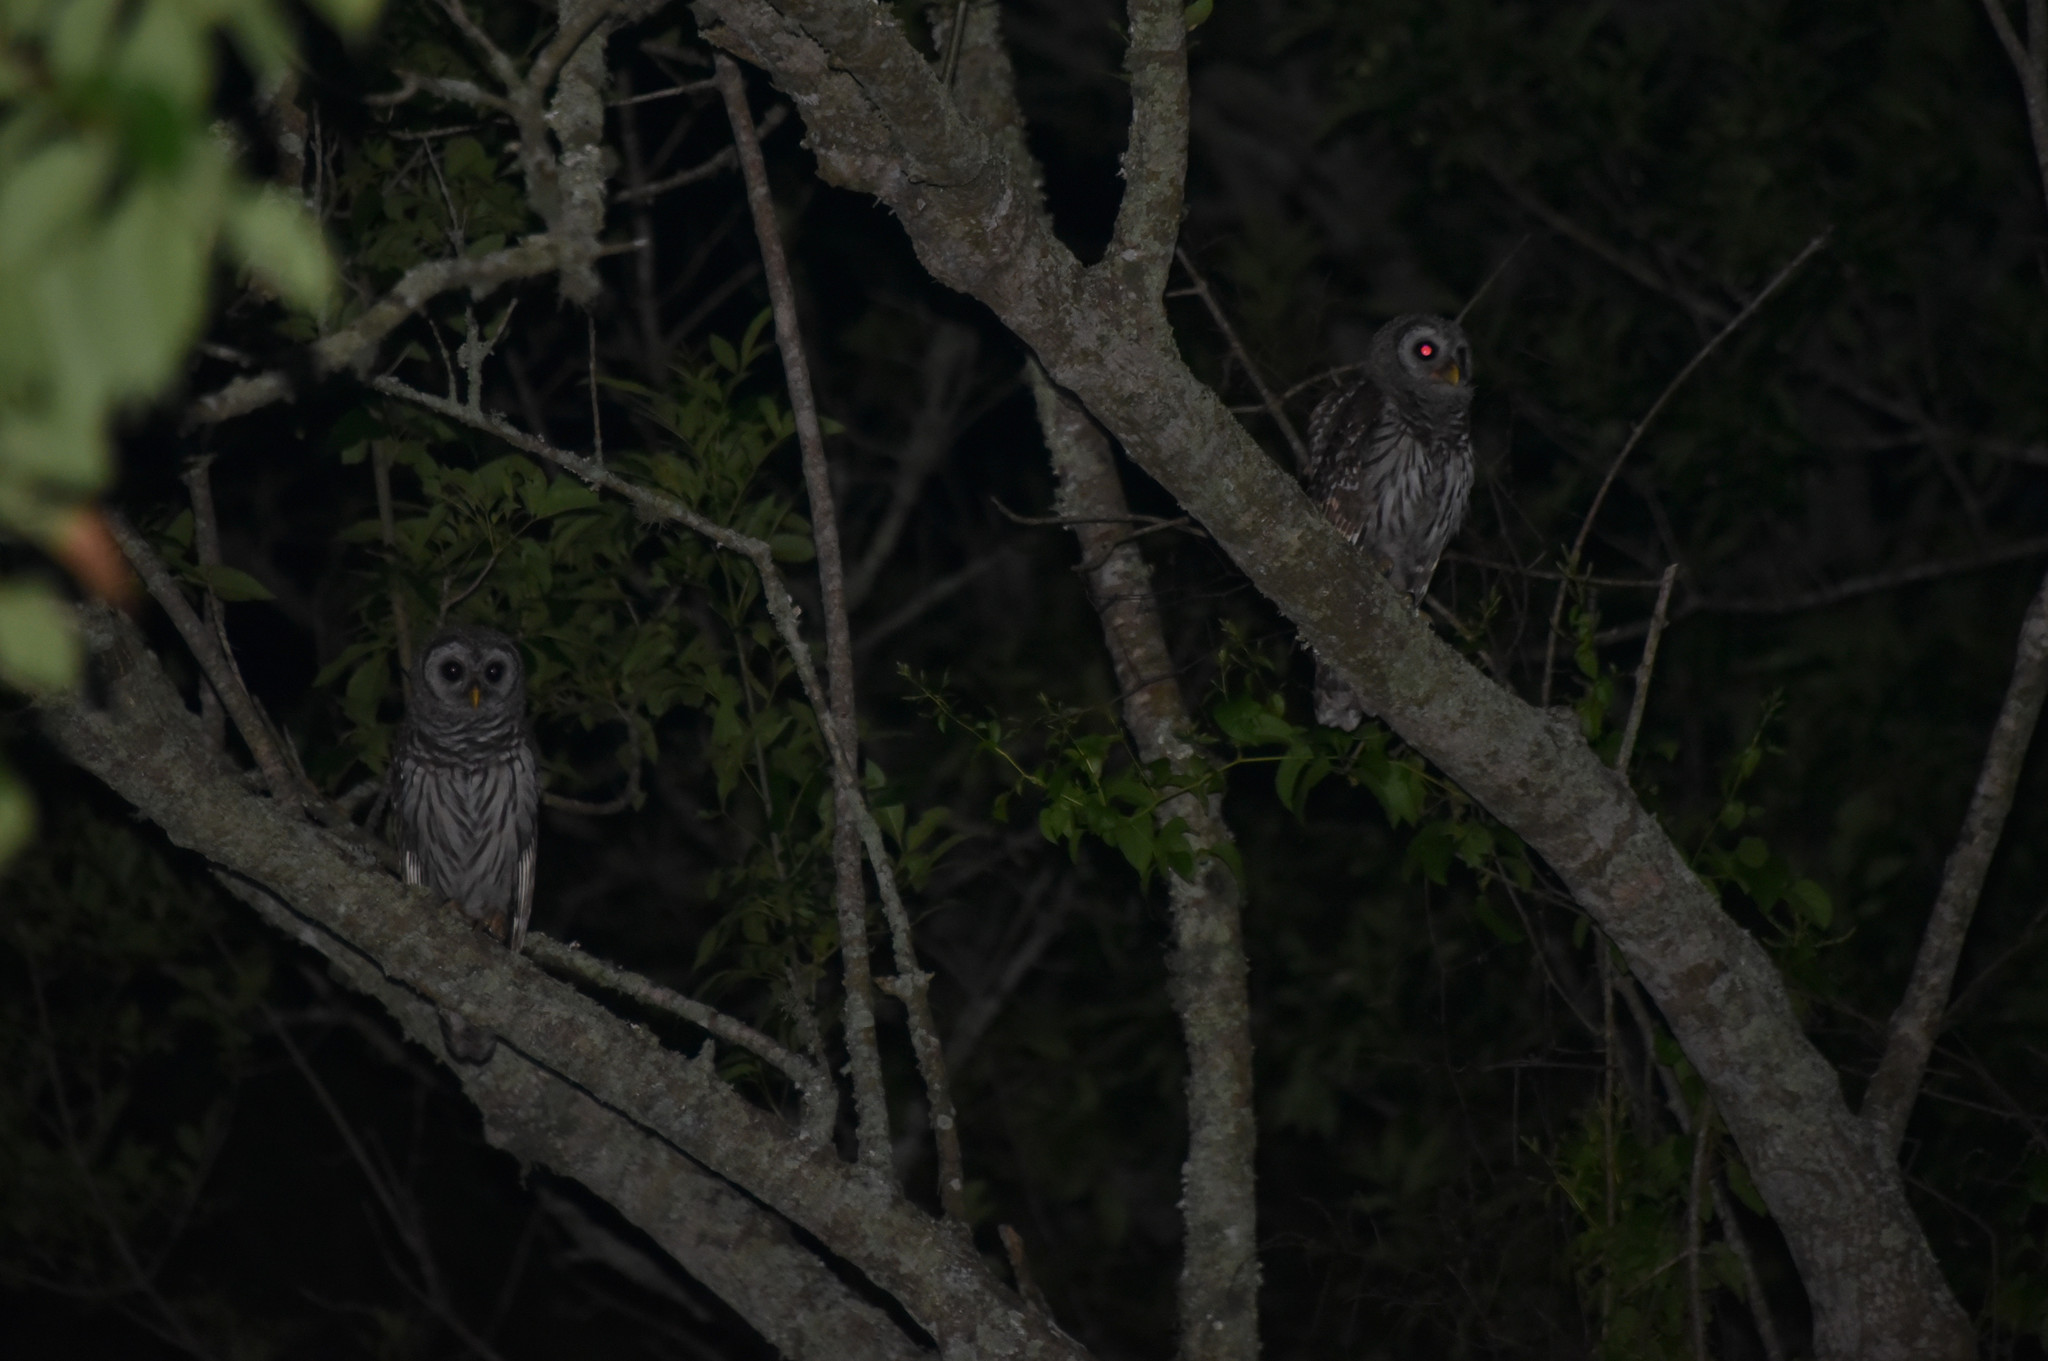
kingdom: Animalia
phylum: Chordata
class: Aves
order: Strigiformes
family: Strigidae
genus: Strix
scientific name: Strix varia
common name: Barred owl
